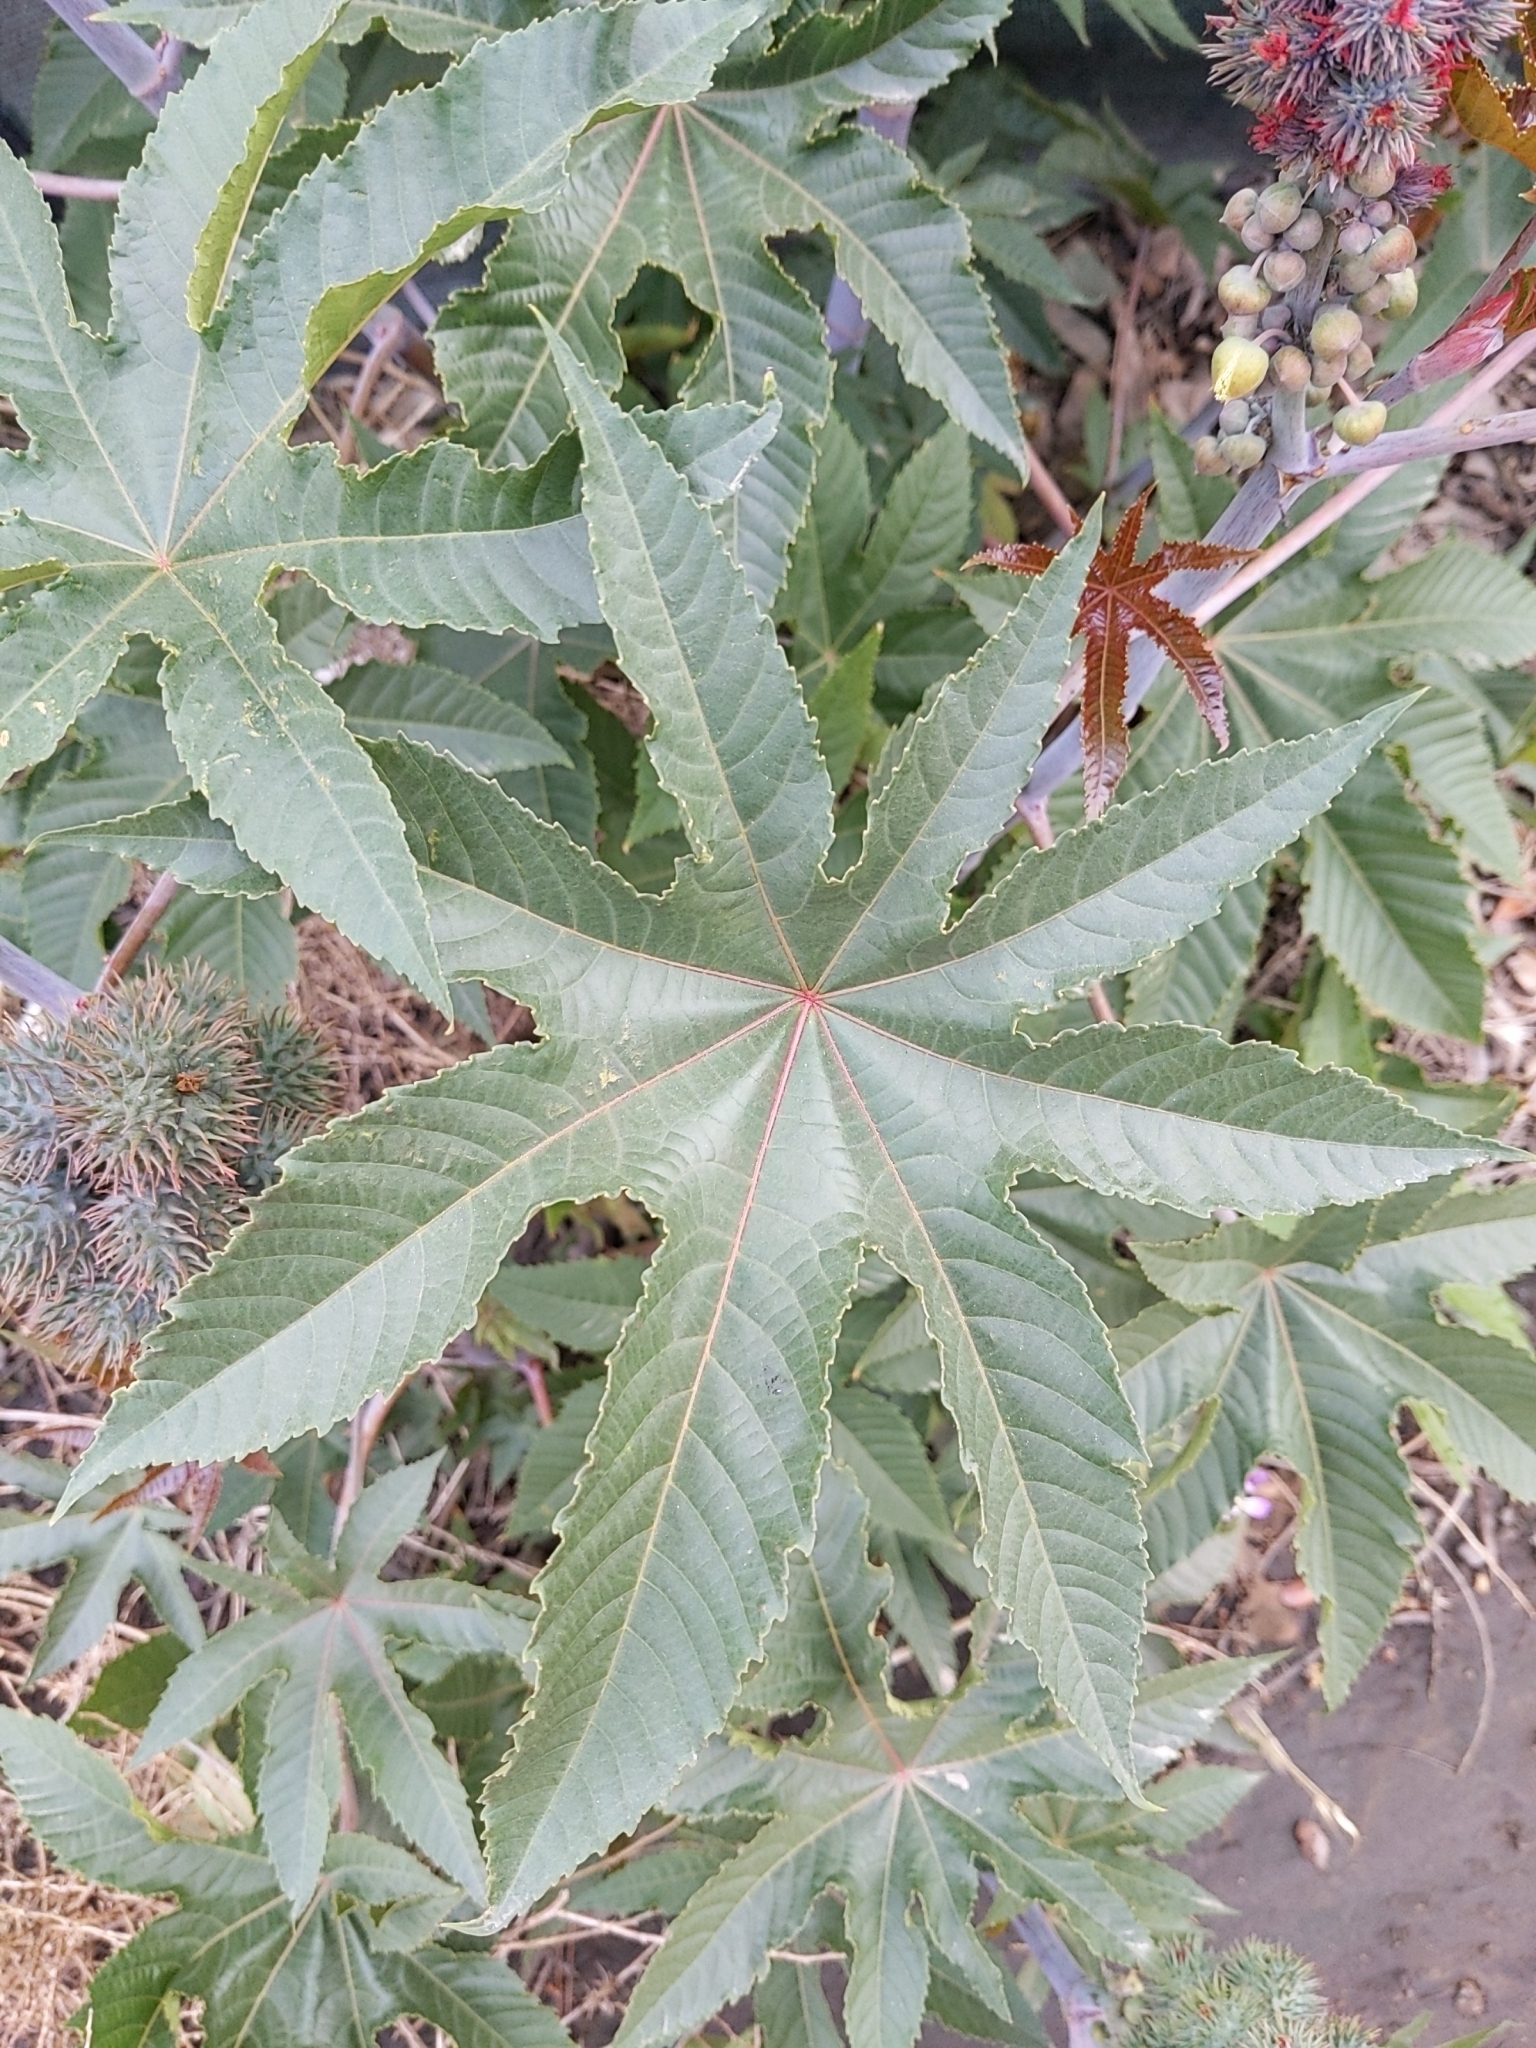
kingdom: Plantae
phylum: Tracheophyta
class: Magnoliopsida
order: Malpighiales
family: Euphorbiaceae
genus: Ricinus
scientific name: Ricinus communis
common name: Castor-oil-plant
